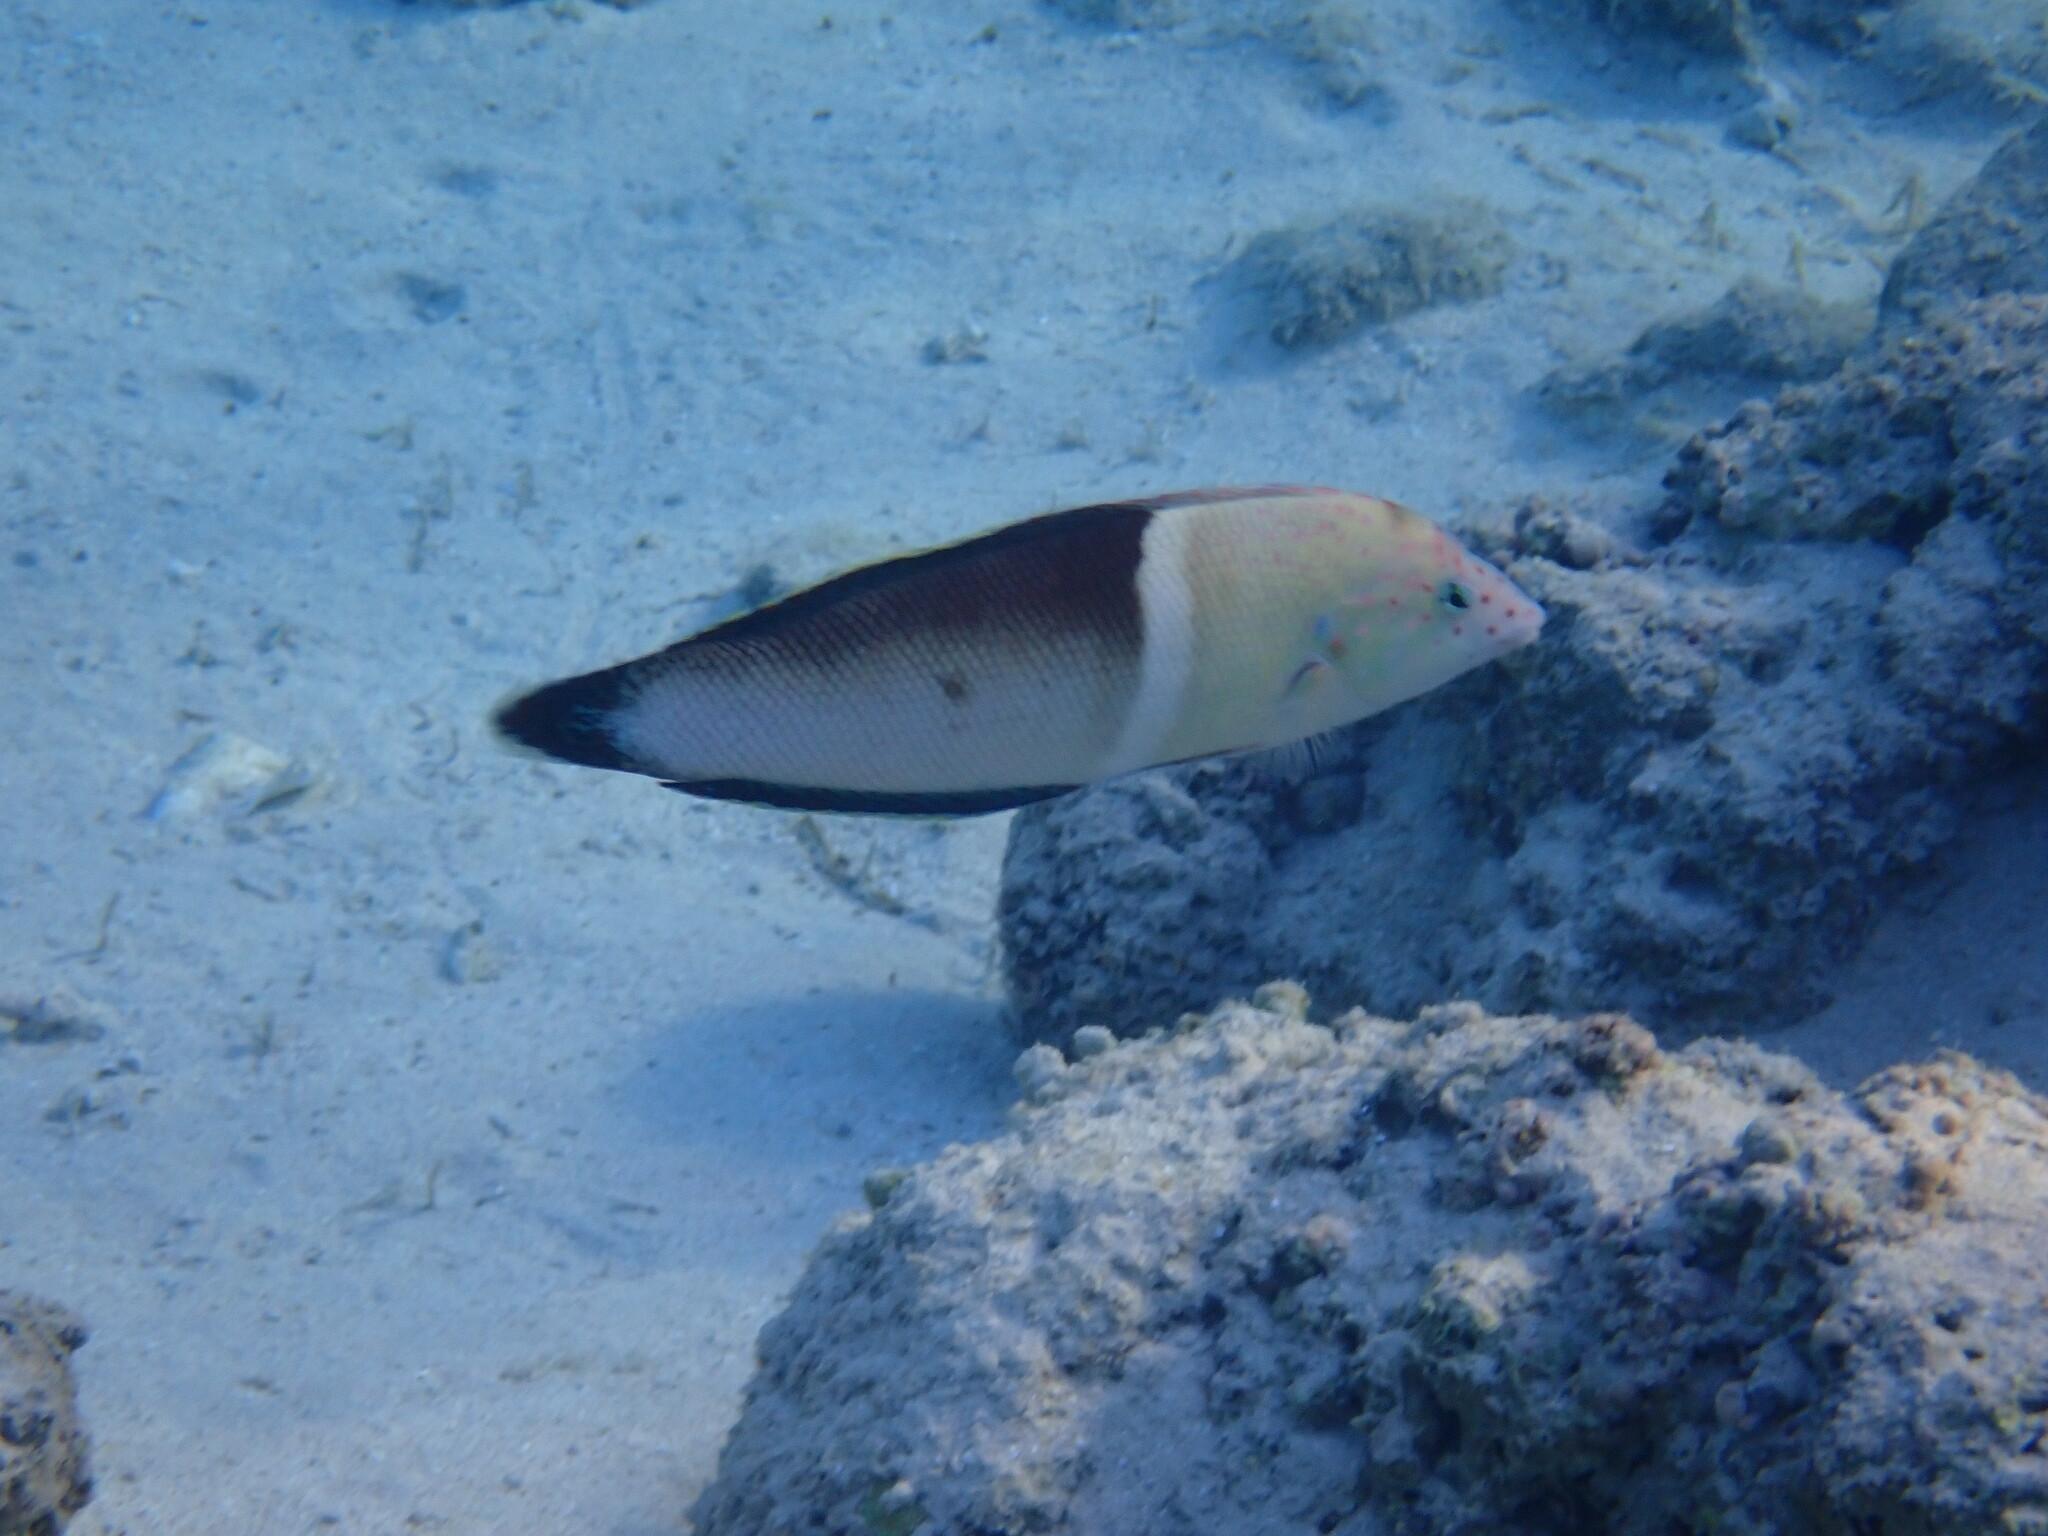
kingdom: Animalia
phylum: Chordata
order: Perciformes
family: Labridae
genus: Coris
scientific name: Coris aygula
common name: Clown coris
